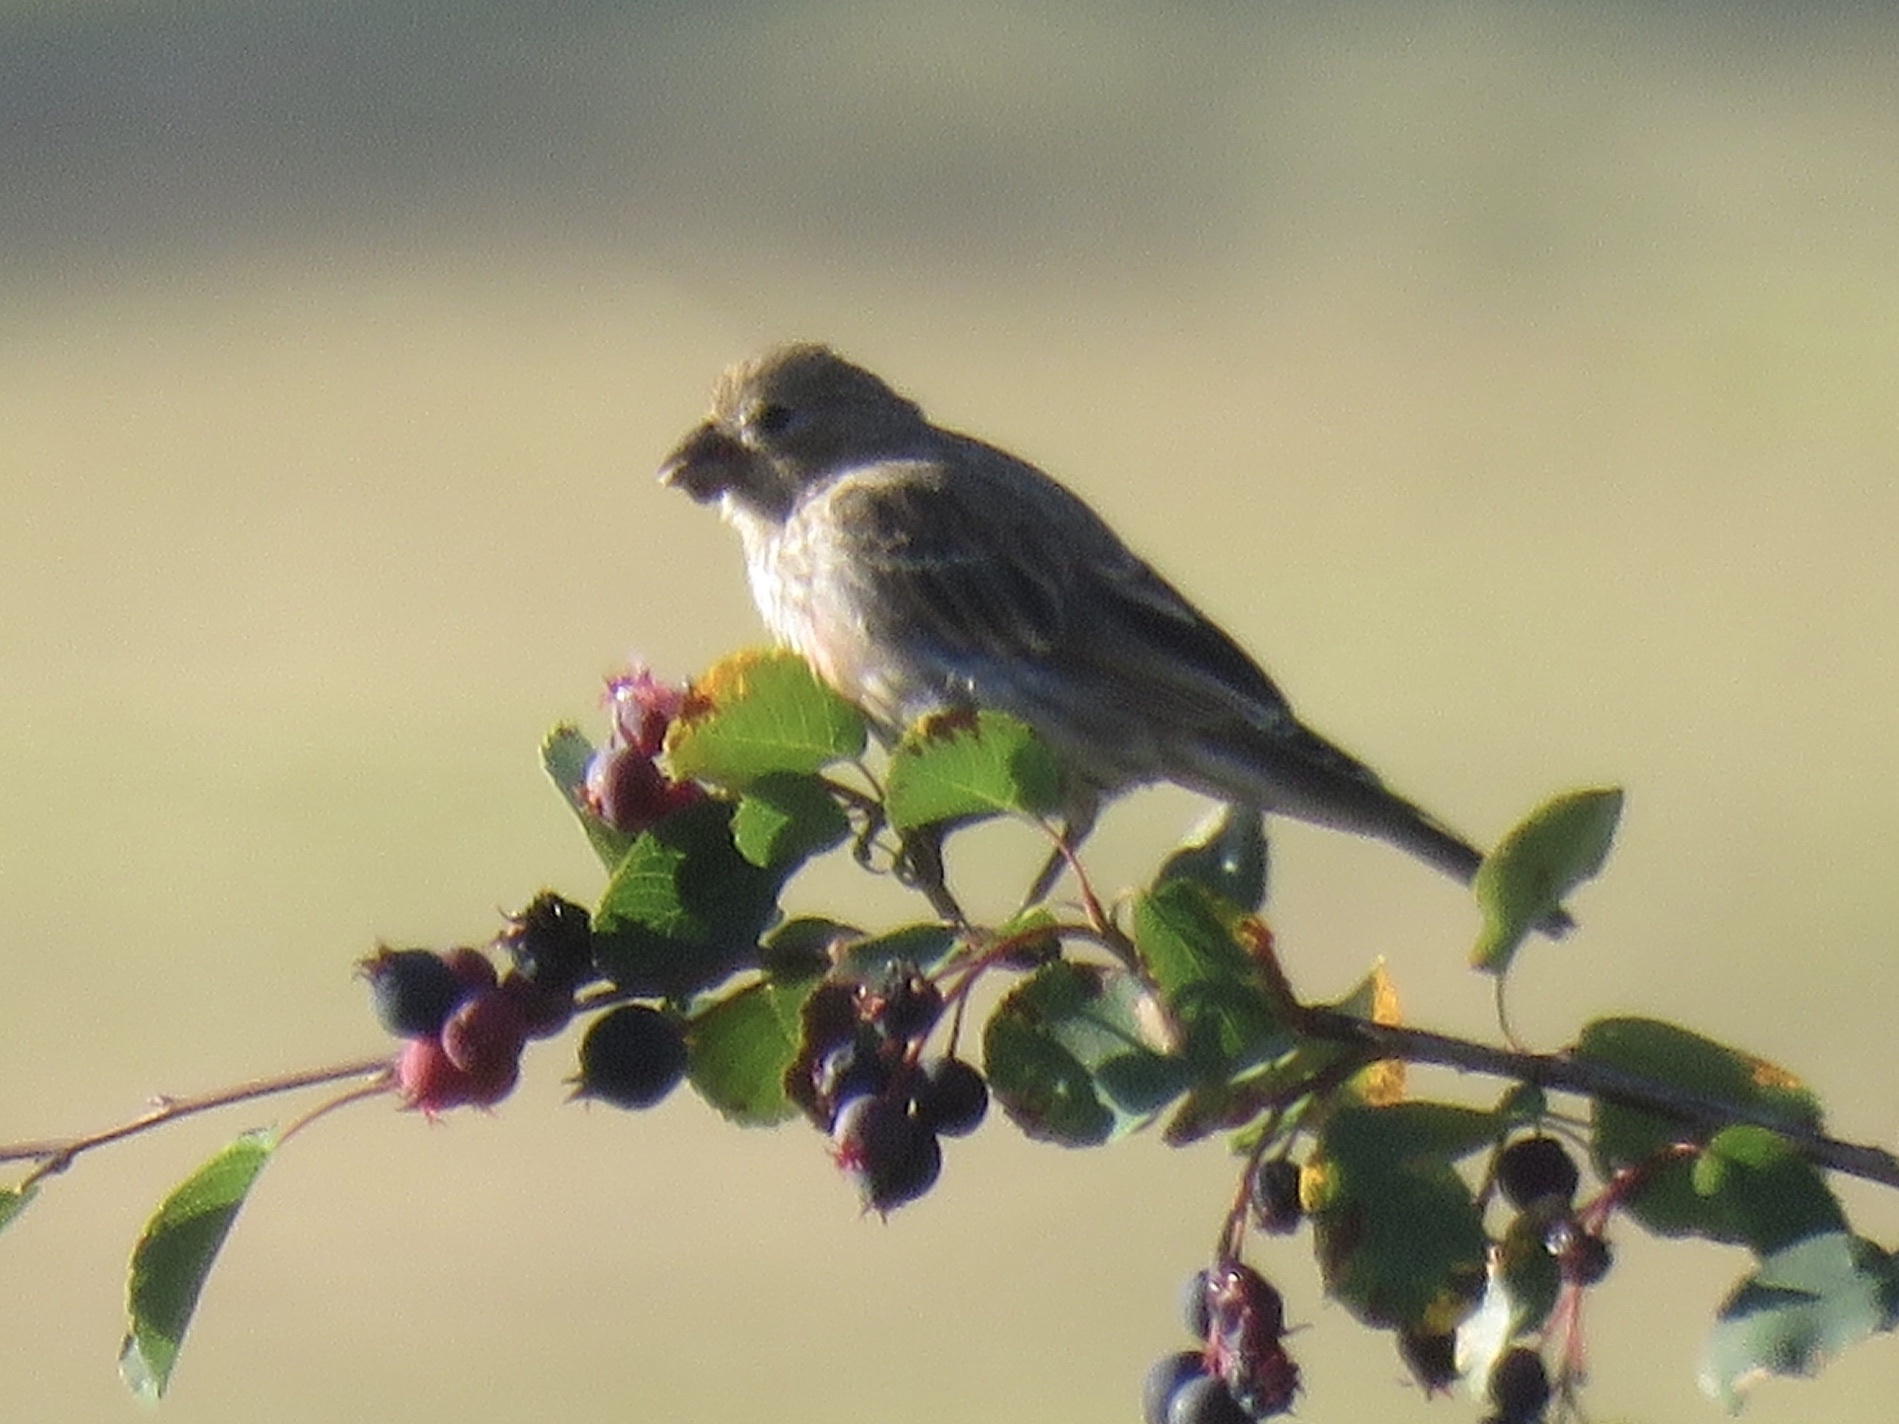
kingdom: Animalia
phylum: Chordata
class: Aves
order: Passeriformes
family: Fringillidae
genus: Haemorhous
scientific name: Haemorhous mexicanus
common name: House finch
